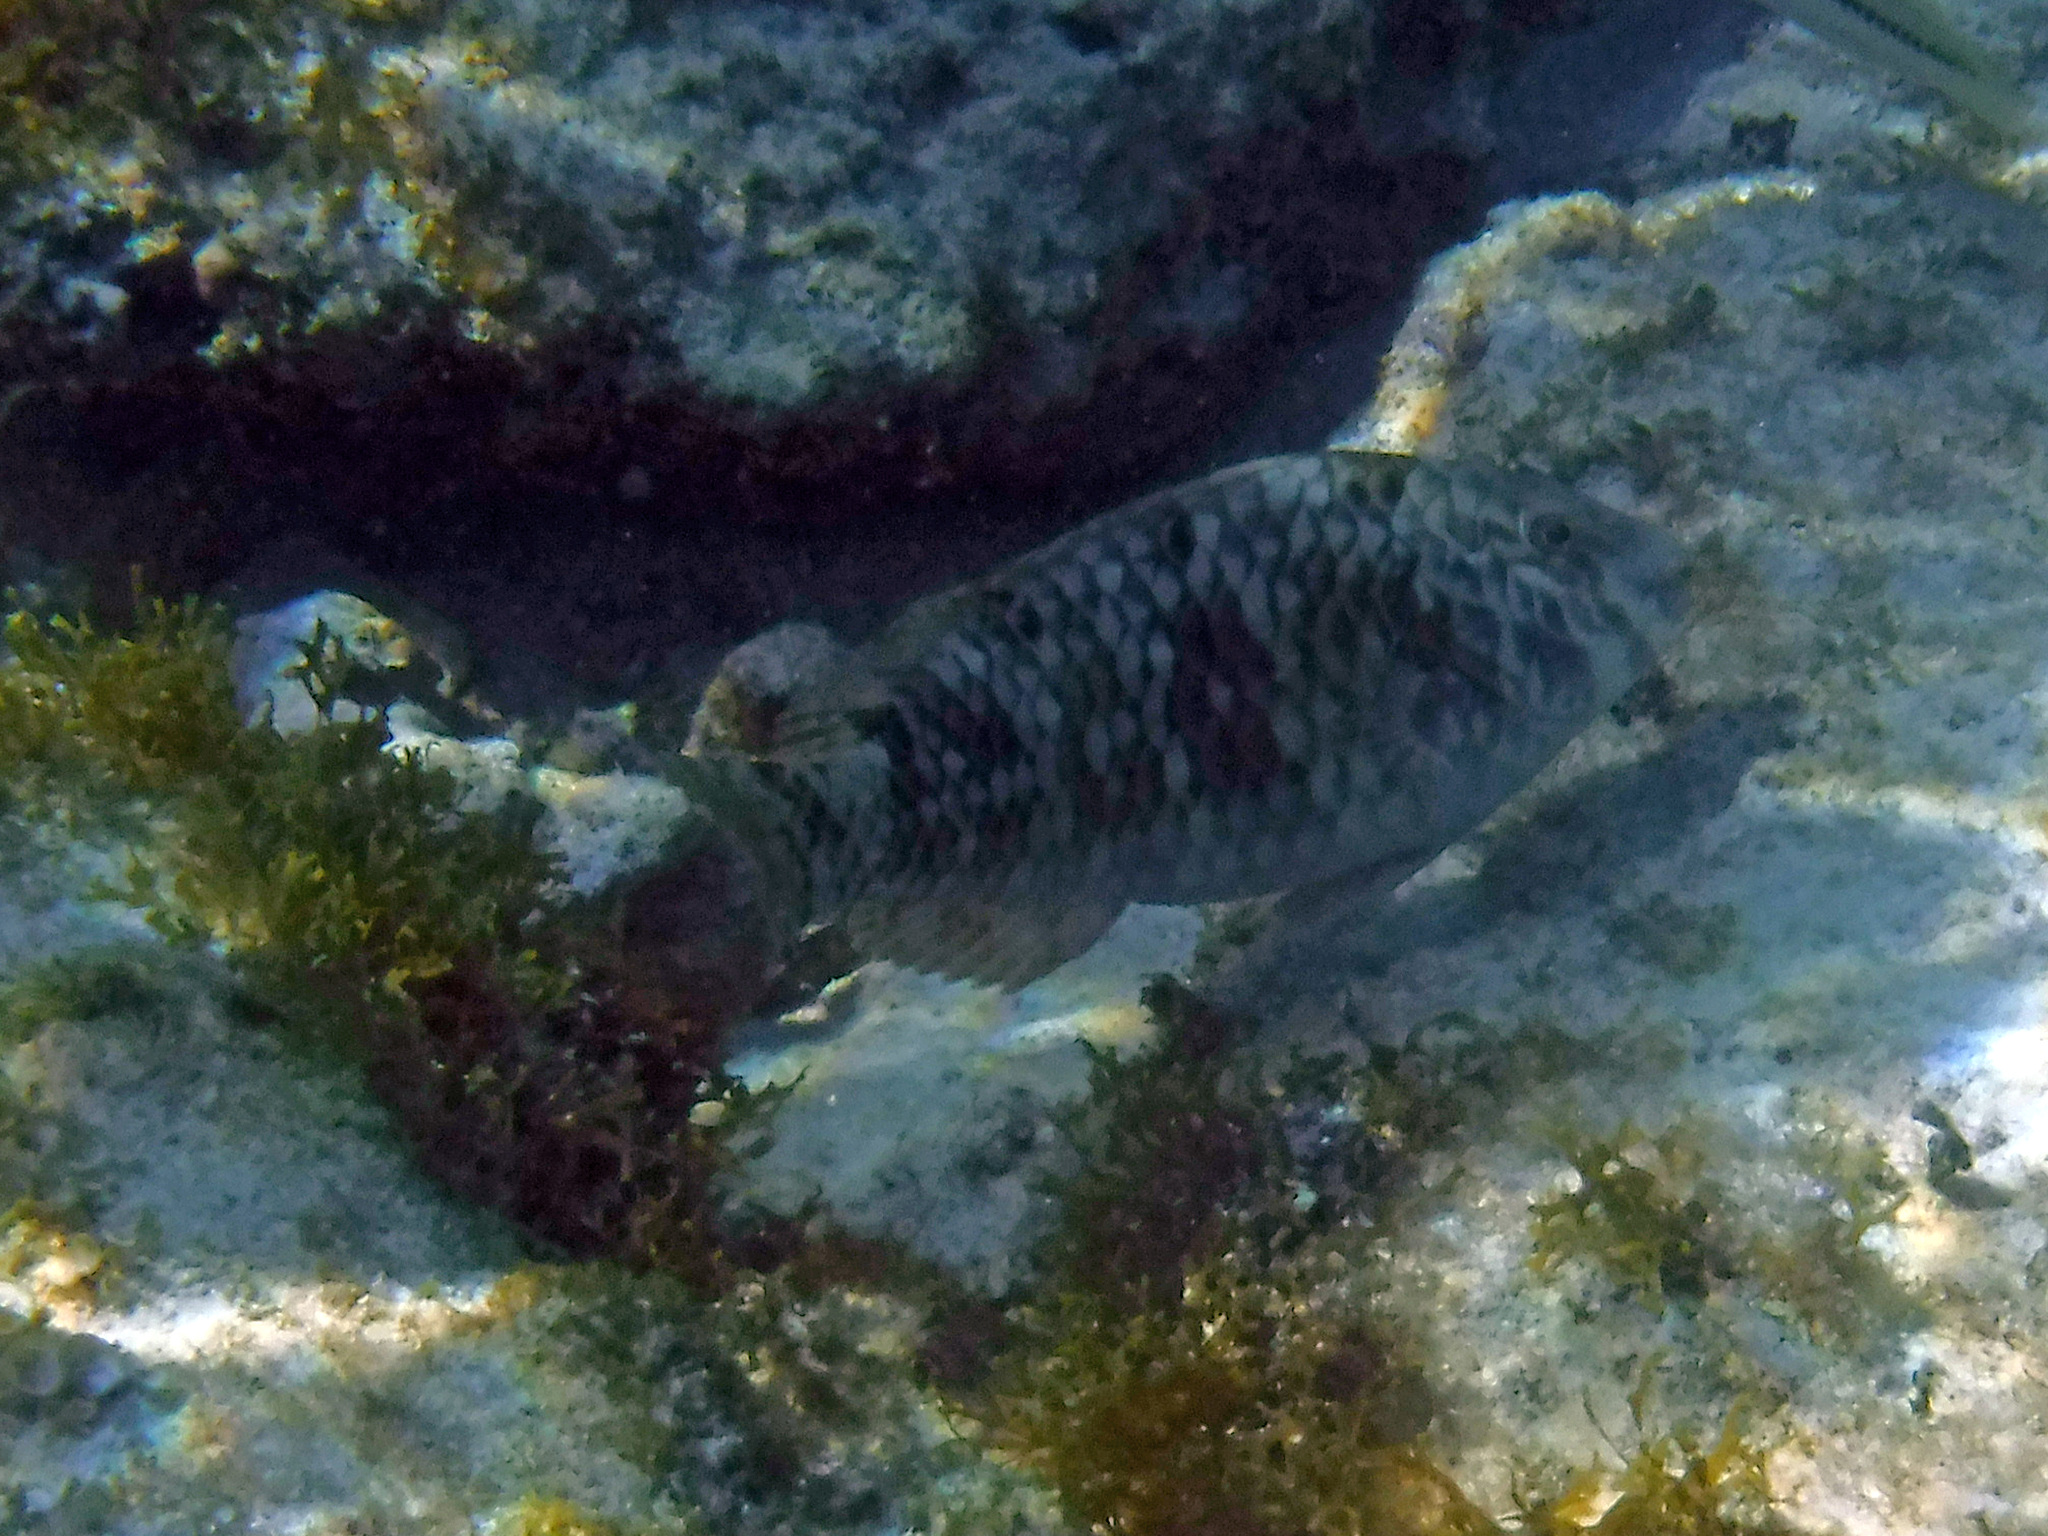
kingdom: Animalia
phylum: Chordata
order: Perciformes
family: Scaridae
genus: Sparisoma
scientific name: Sparisoma rubripinne
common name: Redfin parrotfish
